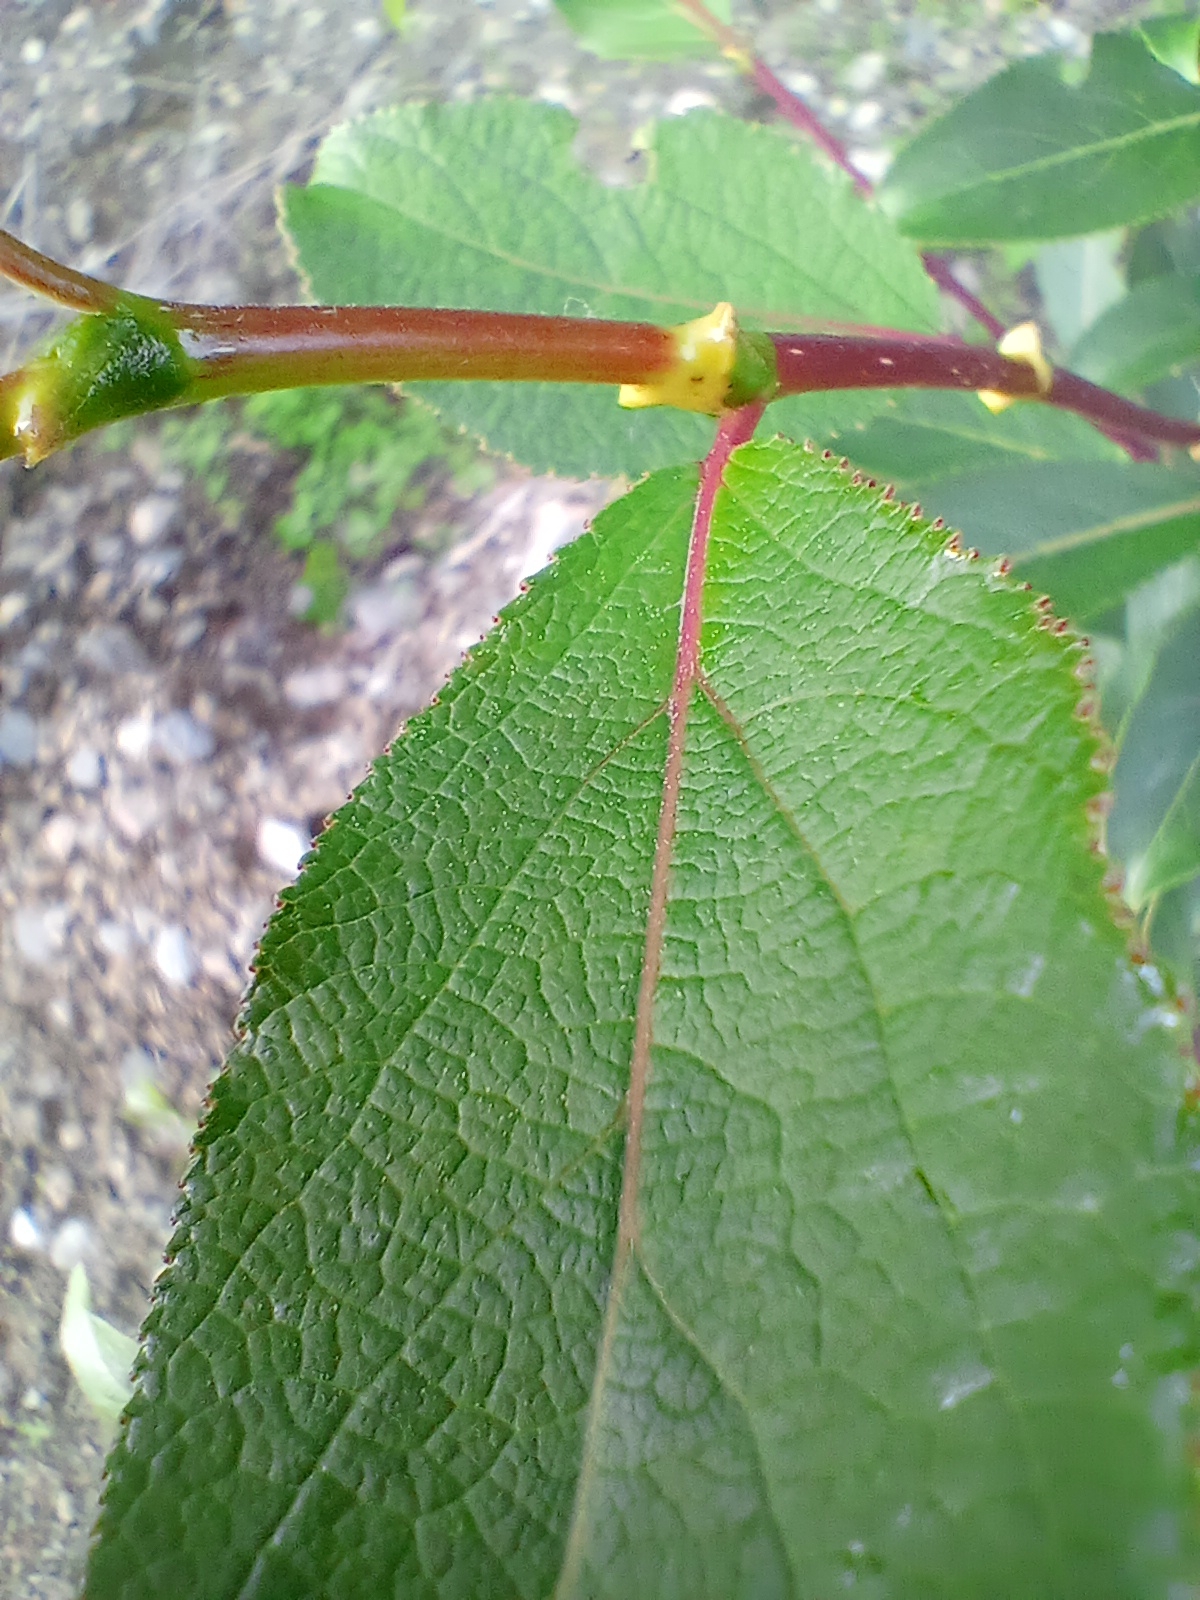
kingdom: Plantae
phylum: Tracheophyta
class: Magnoliopsida
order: Malpighiales
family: Salicaceae
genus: Populus
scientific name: Populus suaveolens
